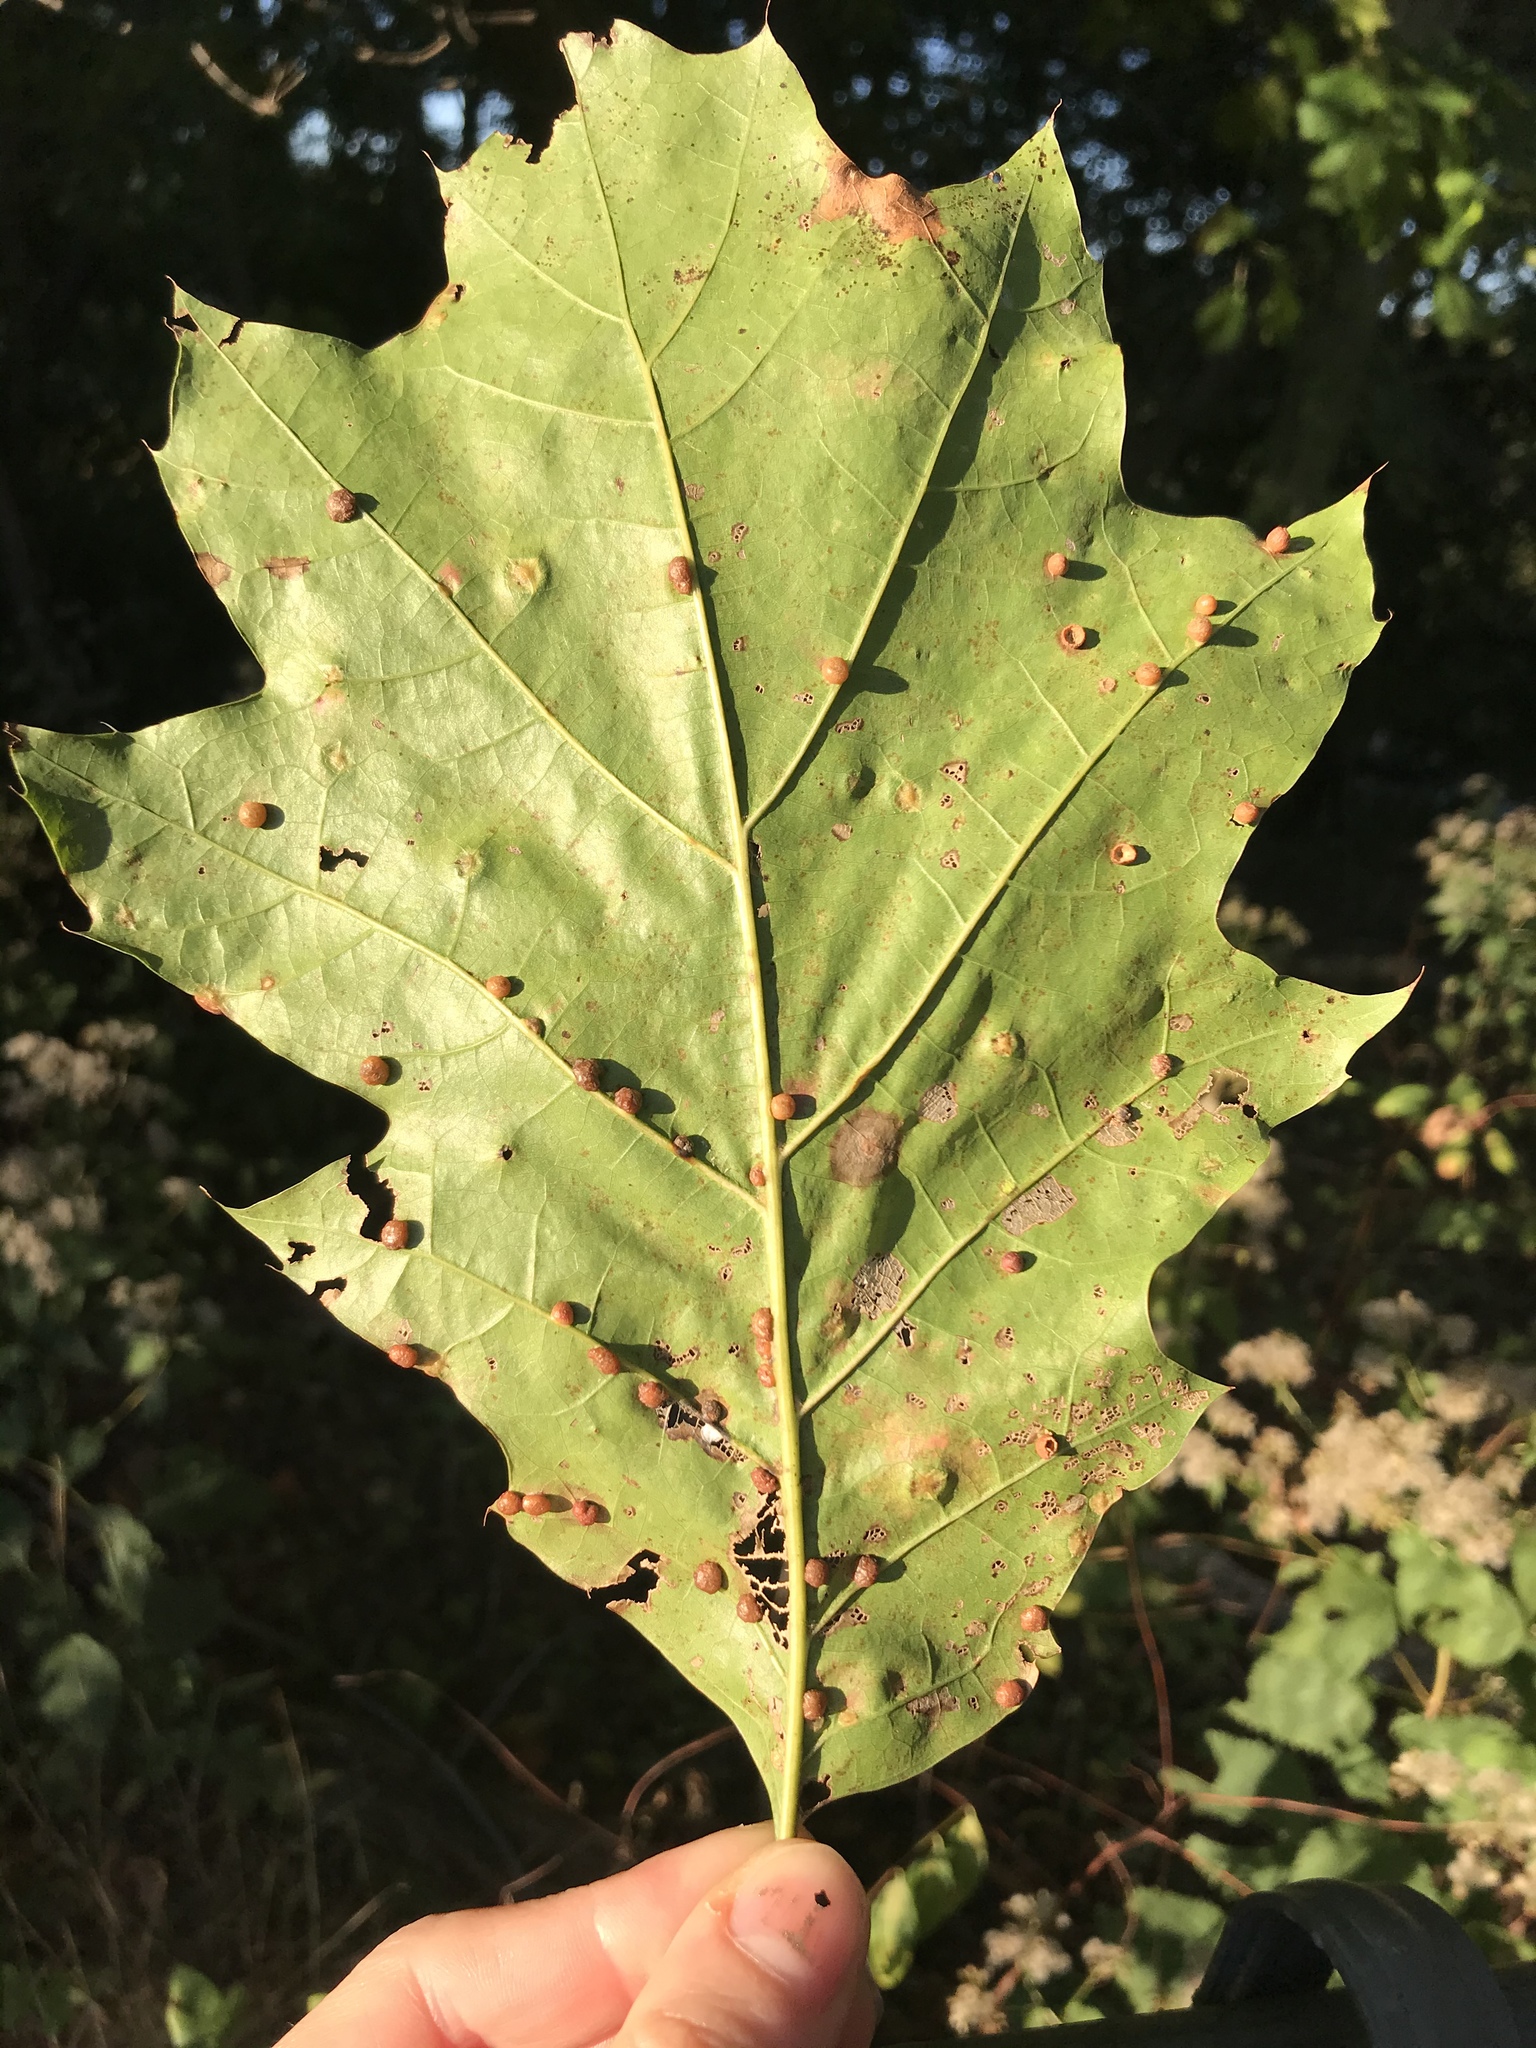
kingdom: Plantae
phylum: Tracheophyta
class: Magnoliopsida
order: Fagales
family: Fagaceae
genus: Quercus
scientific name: Quercus rubra
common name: Red oak
